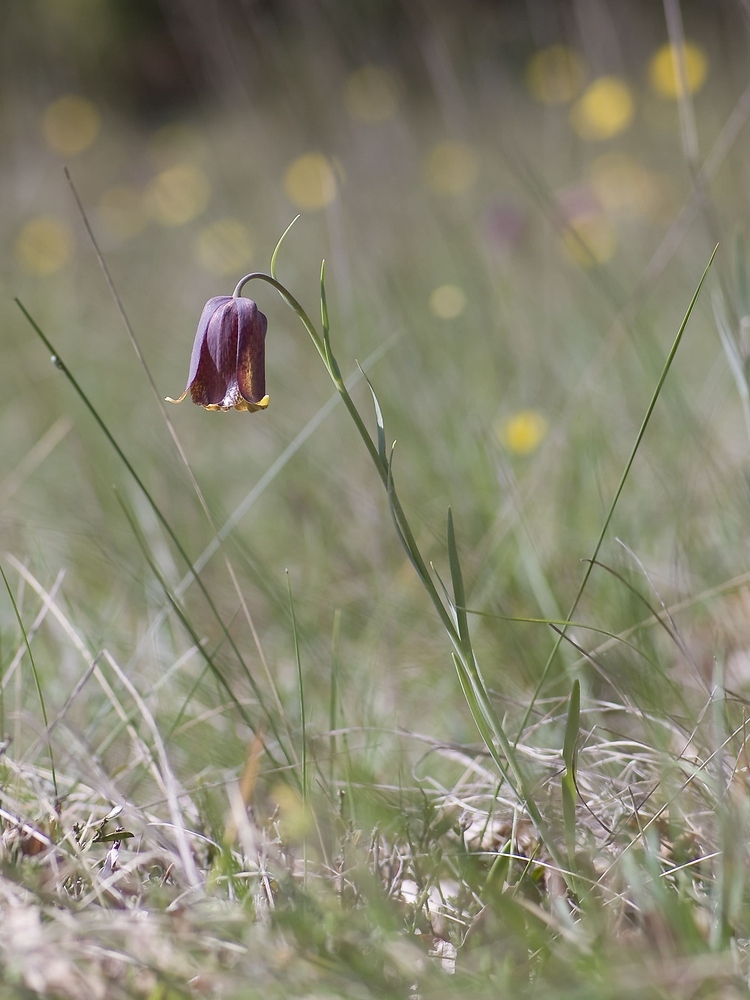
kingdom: Plantae
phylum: Tracheophyta
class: Liliopsida
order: Liliales
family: Liliaceae
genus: Fritillaria
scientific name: Fritillaria pyrenaica
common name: Pyrenean snake's-head
